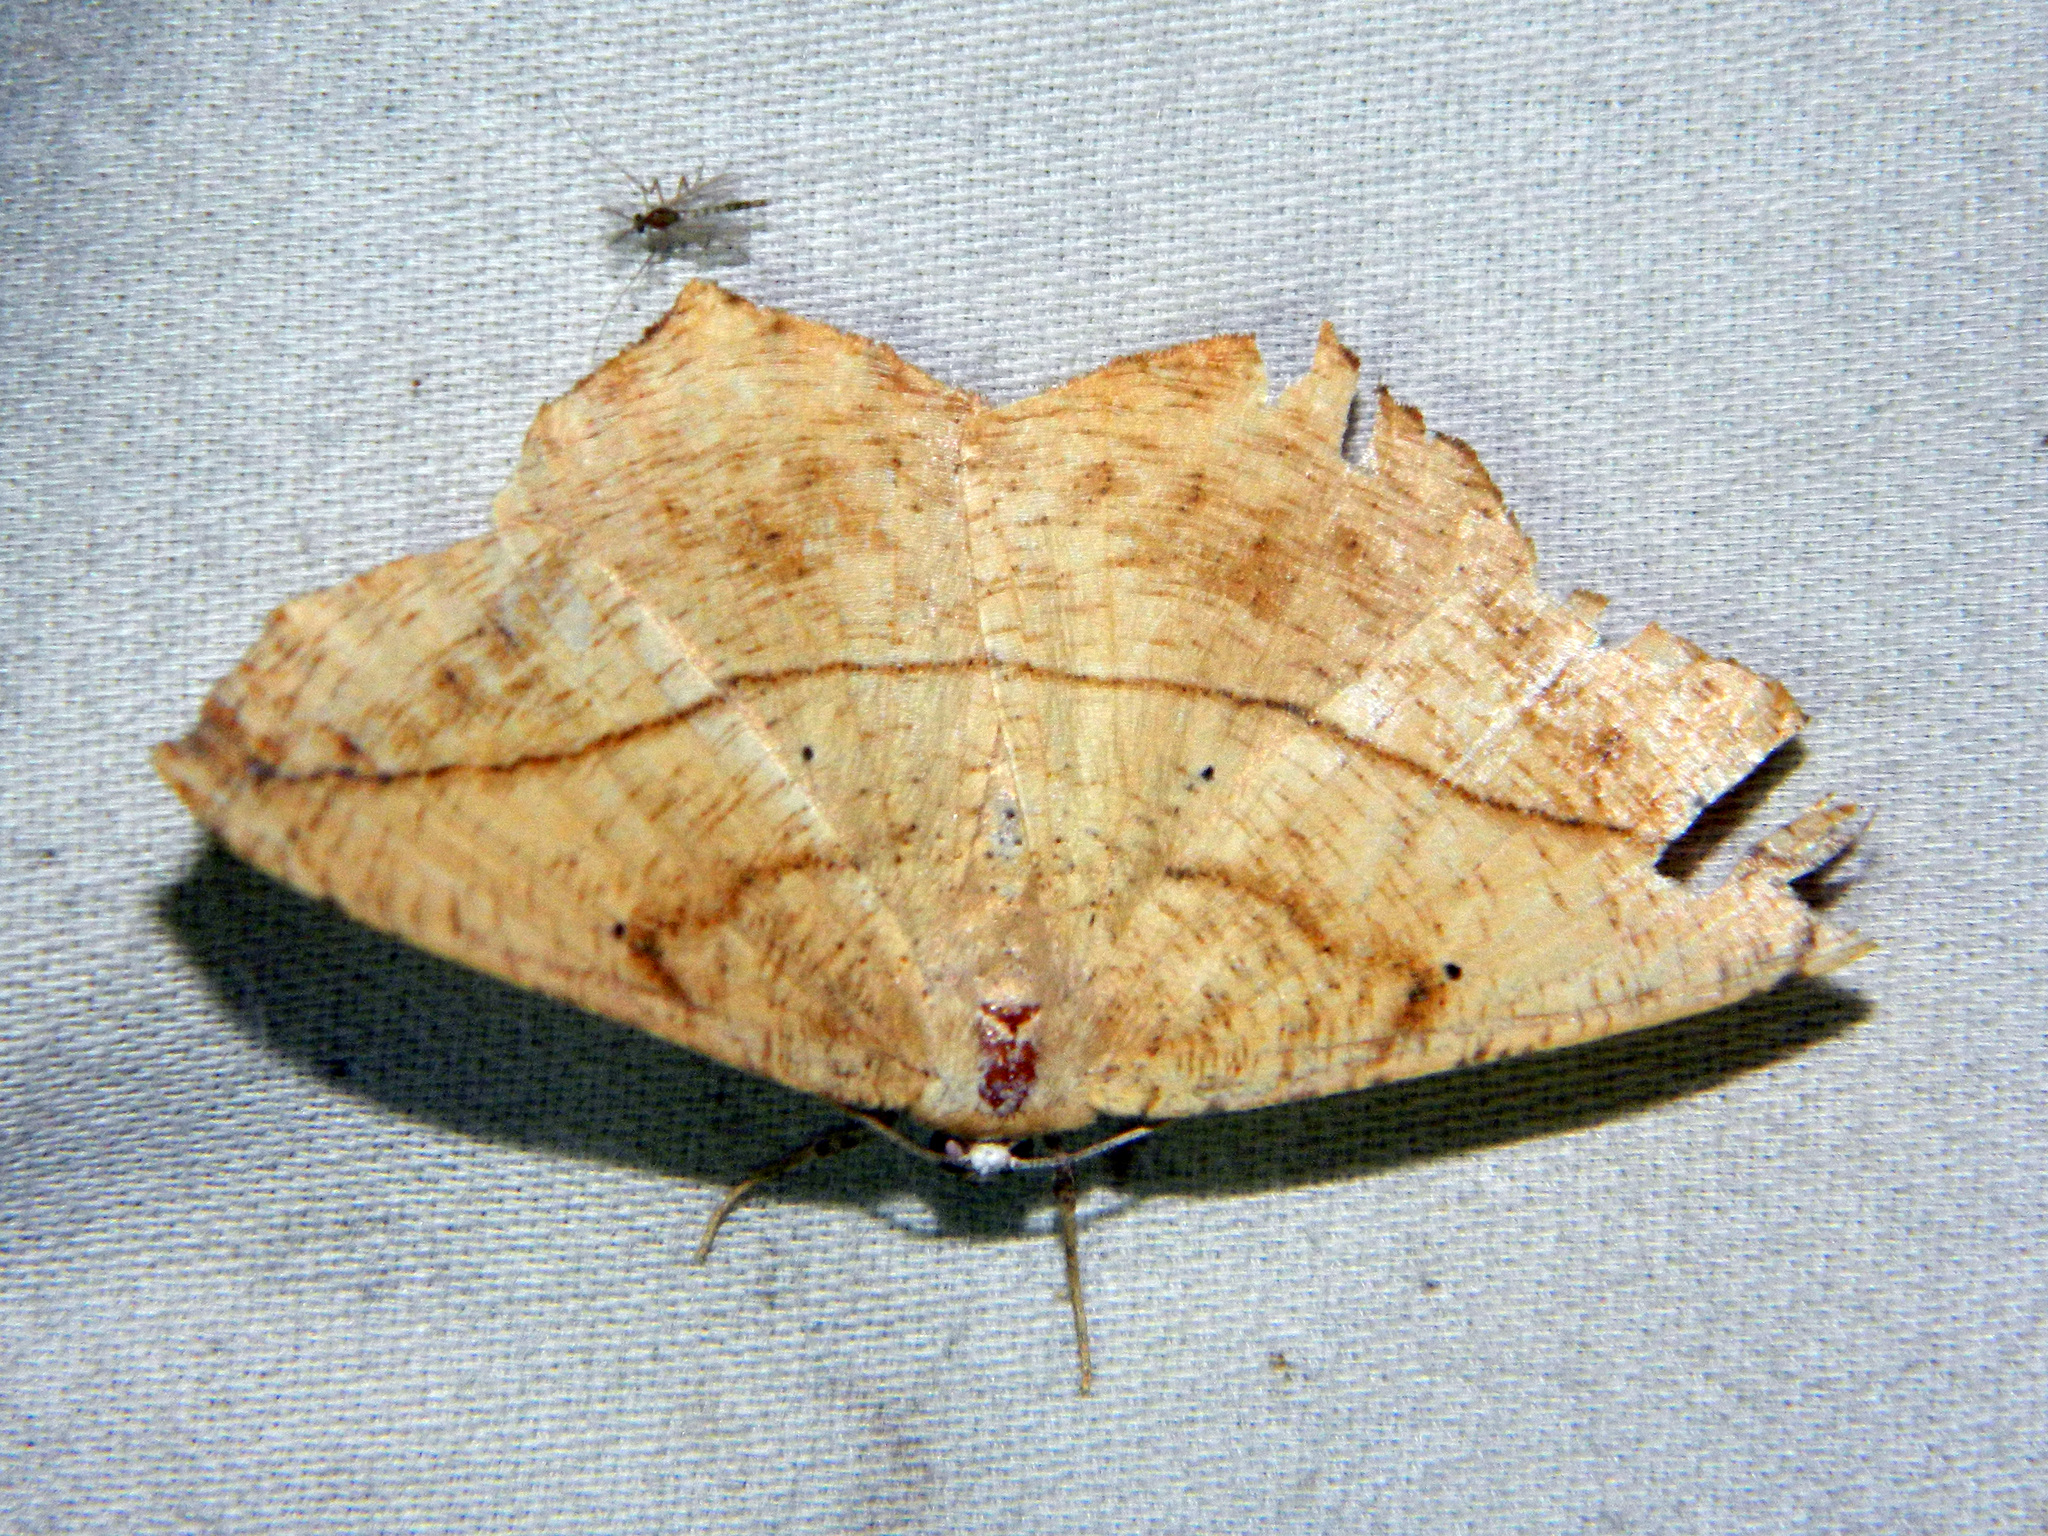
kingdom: Animalia
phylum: Arthropoda
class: Insecta
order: Lepidoptera
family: Geometridae
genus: Prochoerodes
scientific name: Prochoerodes lineola
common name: Large maple spanworm
